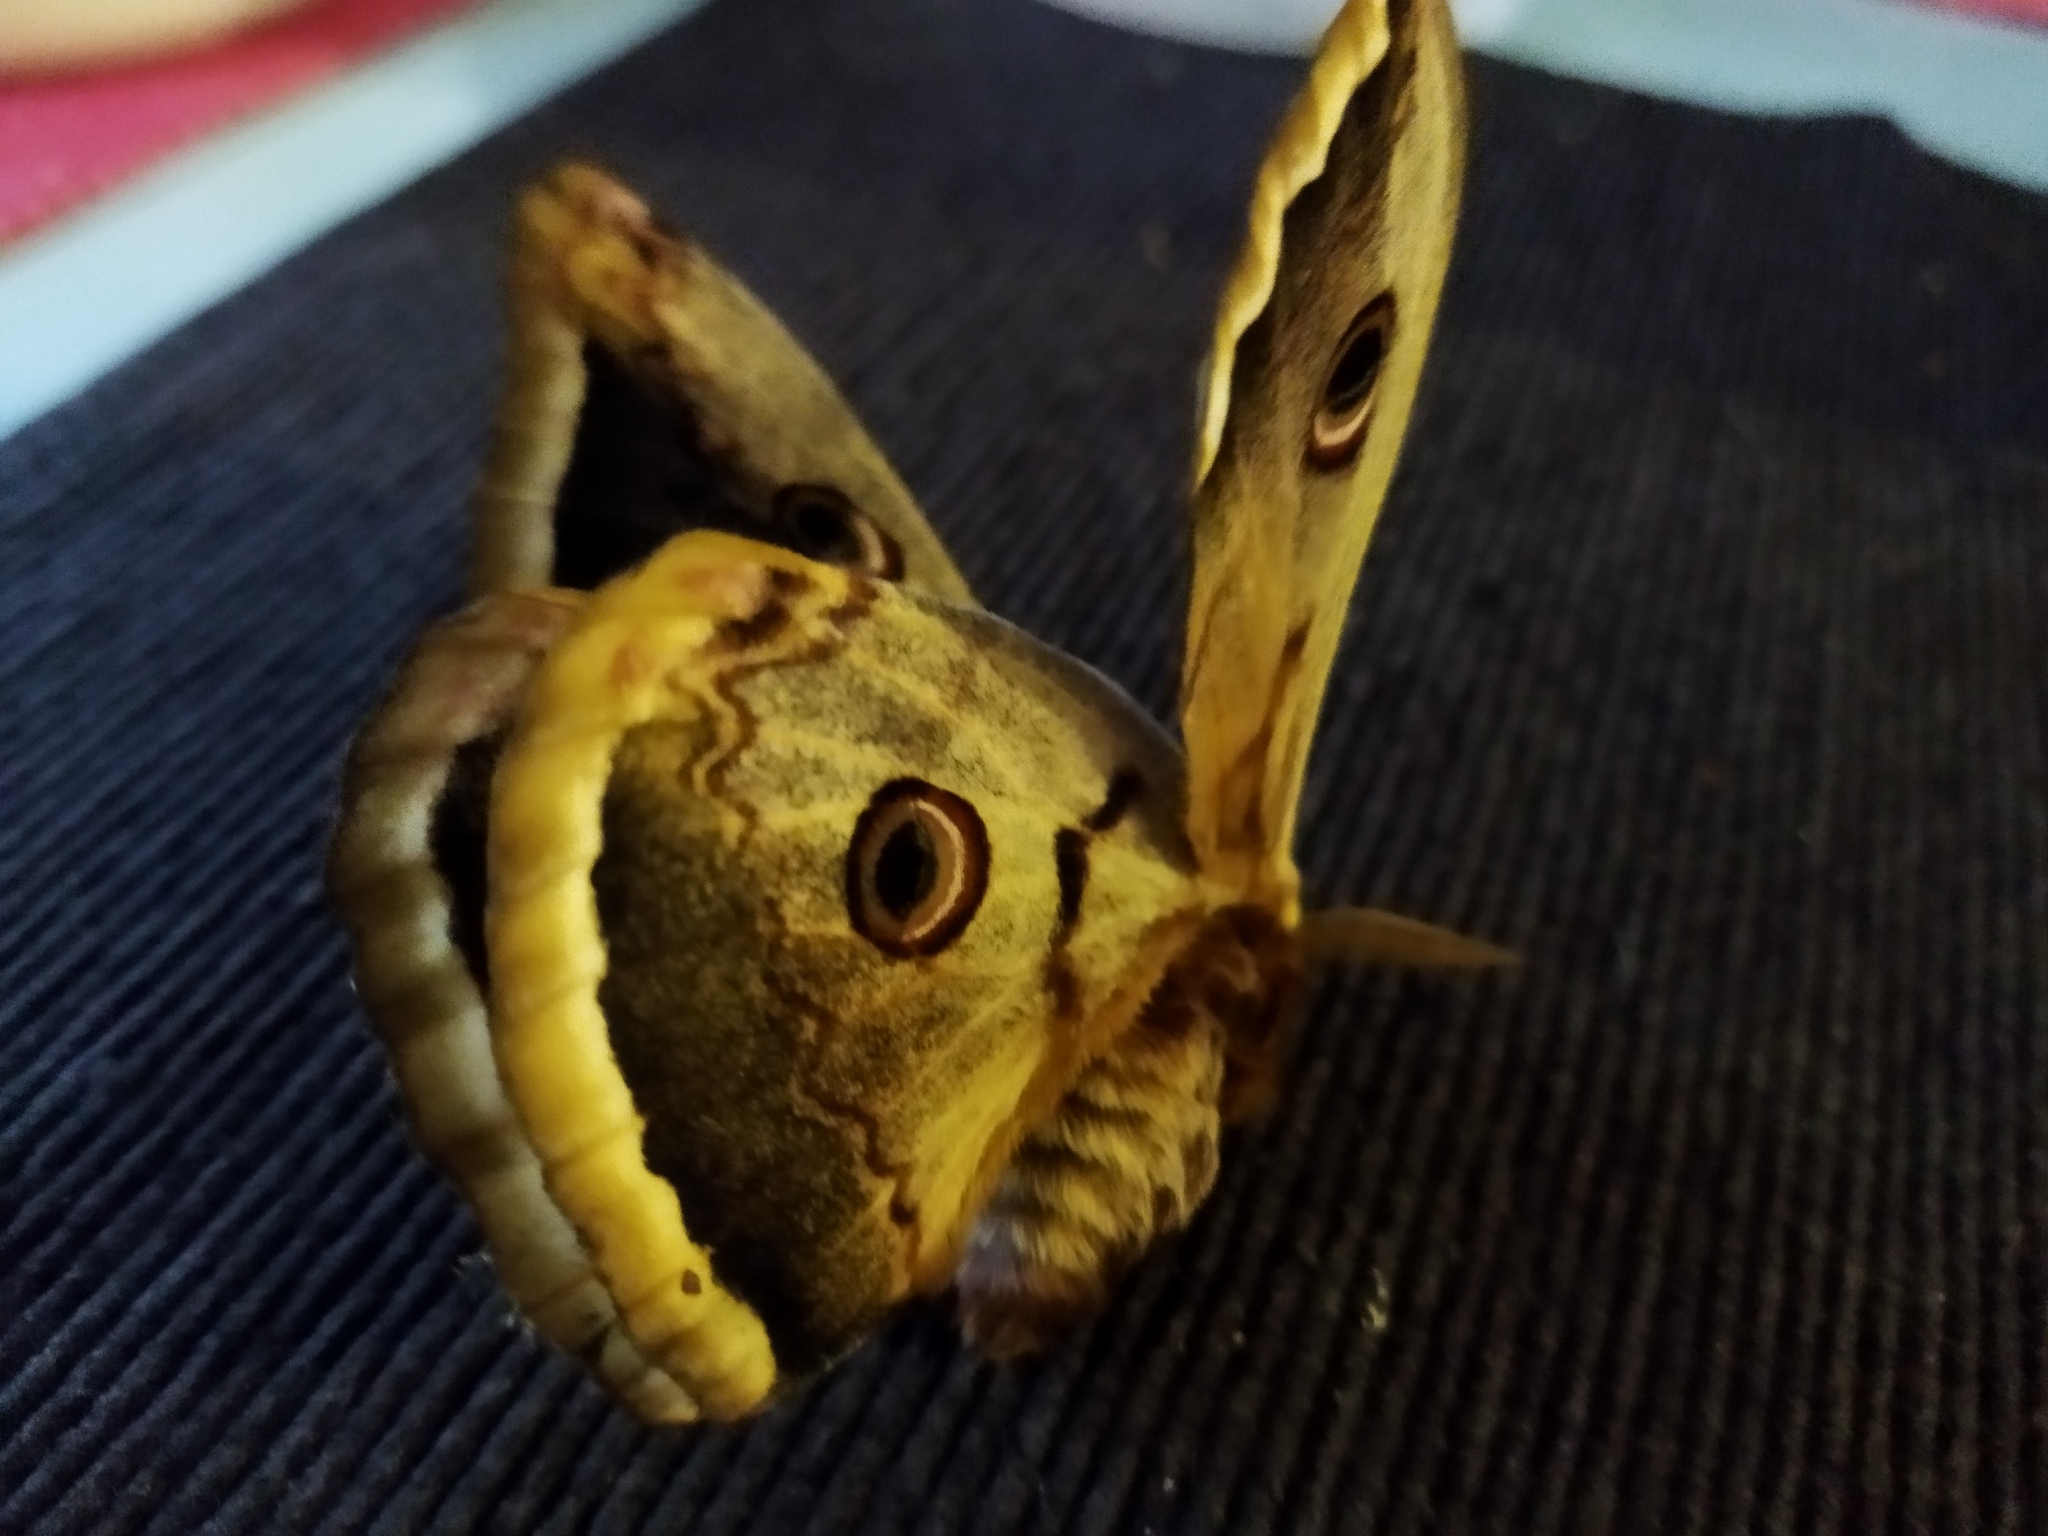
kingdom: Animalia
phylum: Arthropoda
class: Insecta
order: Lepidoptera
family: Saturniidae
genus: Saturnia
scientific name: Saturnia pyri
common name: Great peacock moth
